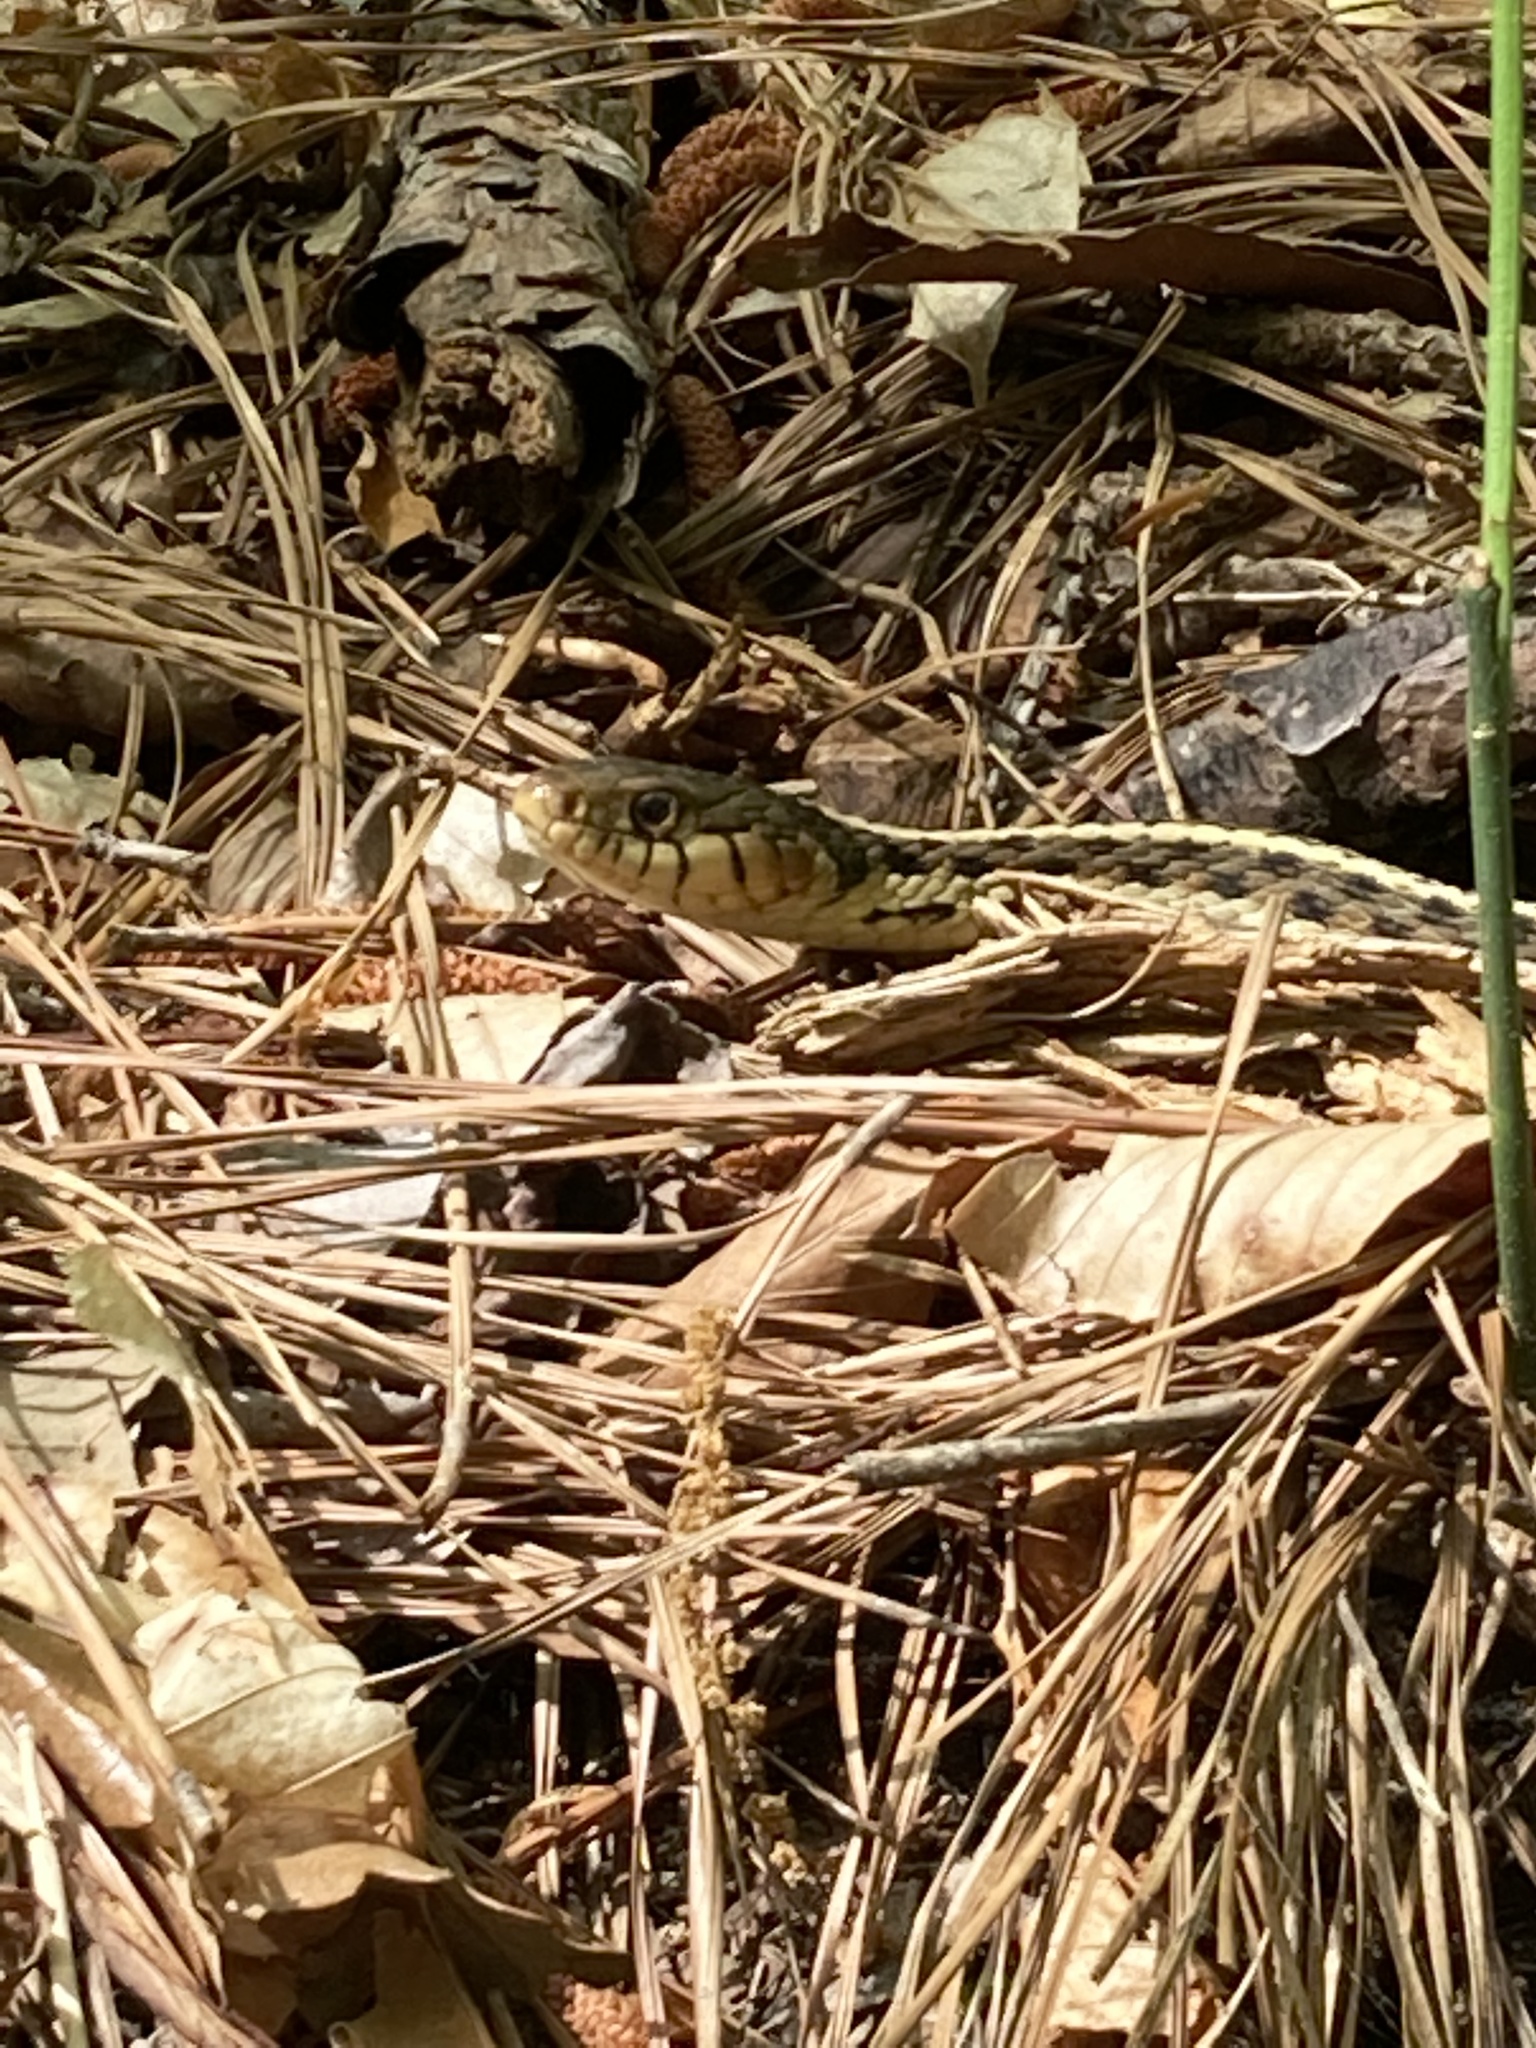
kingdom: Animalia
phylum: Chordata
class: Squamata
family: Colubridae
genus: Thamnophis
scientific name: Thamnophis sirtalis
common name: Common garter snake
